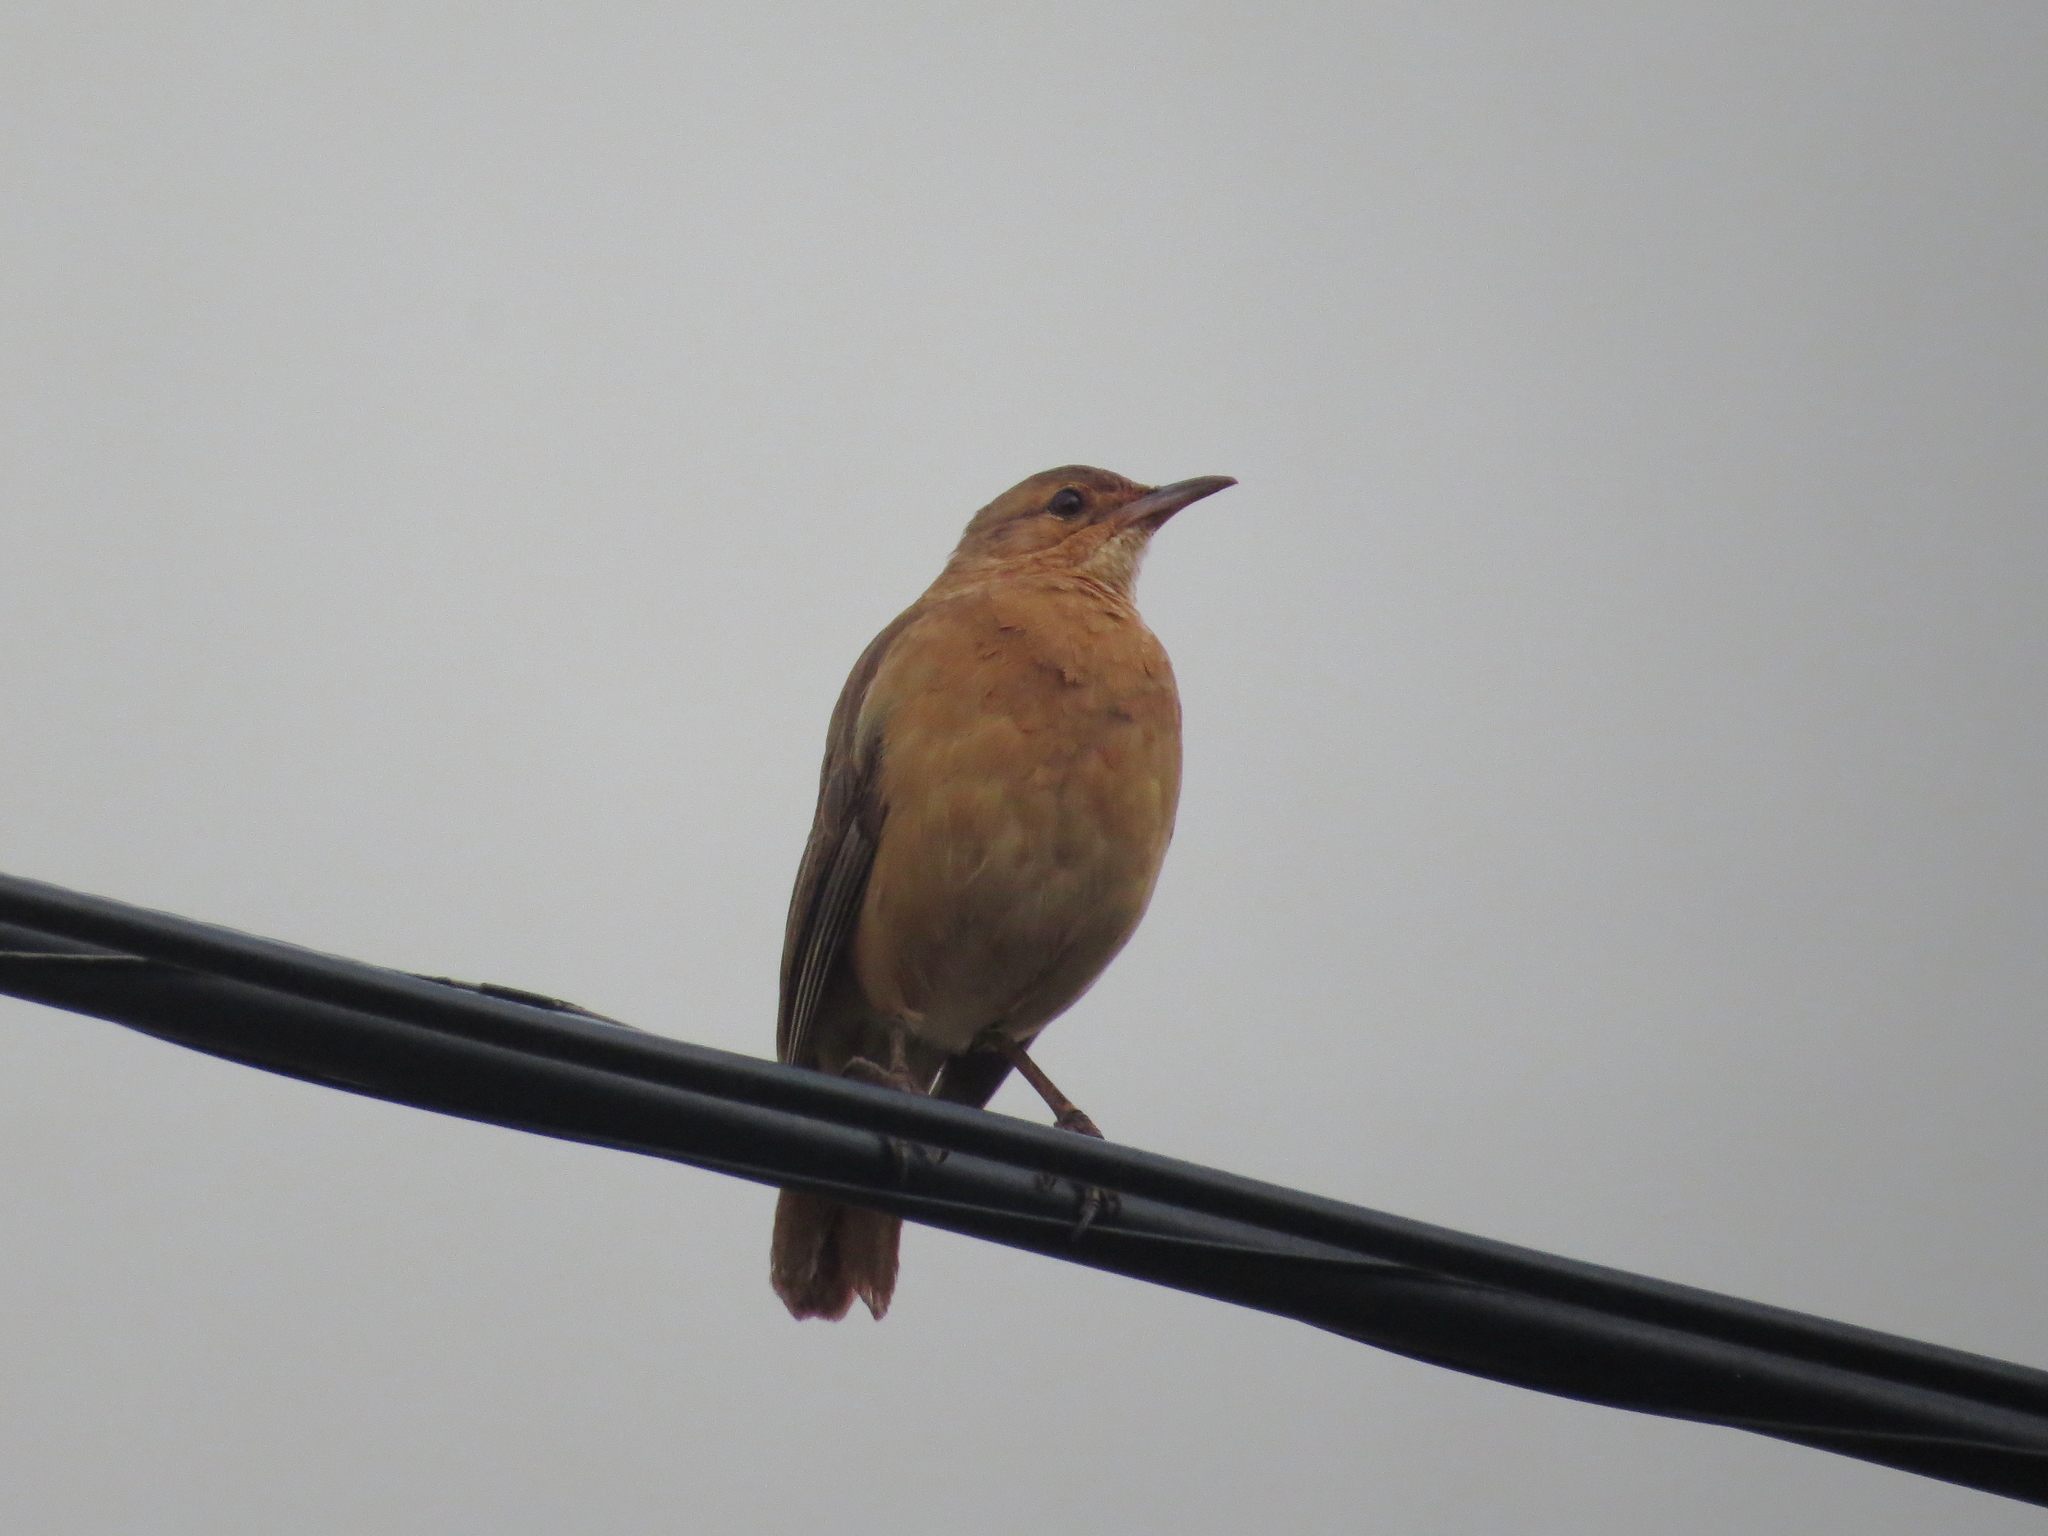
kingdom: Animalia
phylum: Chordata
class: Aves
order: Passeriformes
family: Furnariidae
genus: Furnarius
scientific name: Furnarius rufus
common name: Rufous hornero
